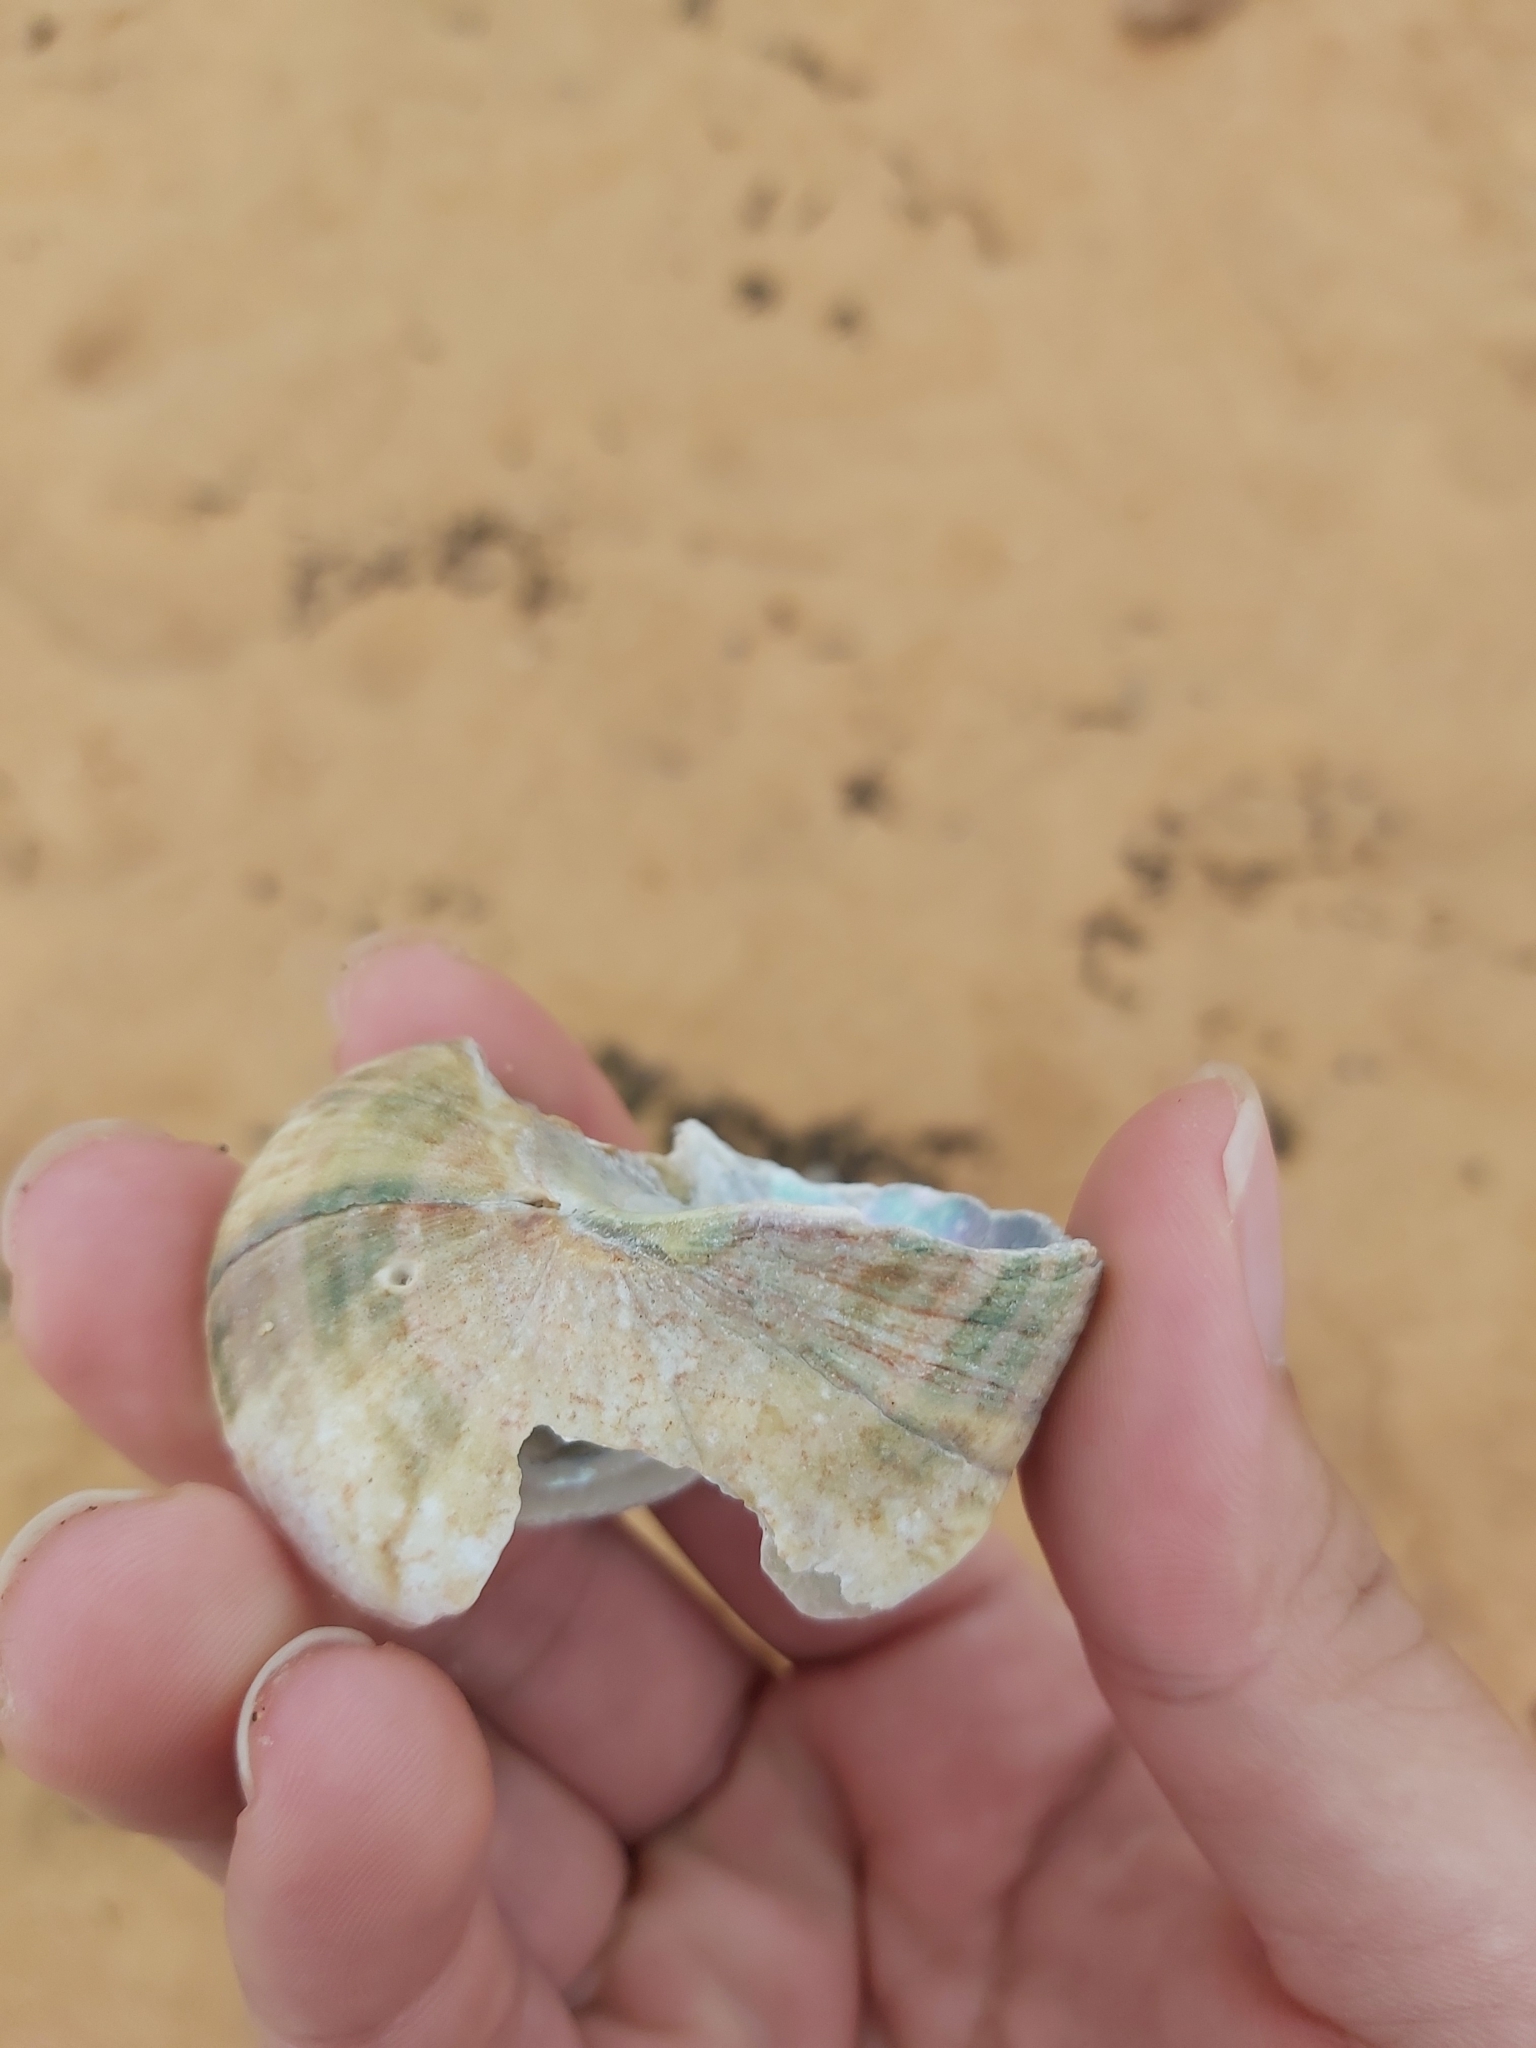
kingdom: Animalia
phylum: Mollusca
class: Gastropoda
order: Trochida
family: Turbinidae
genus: Turbo
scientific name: Turbo militaris
